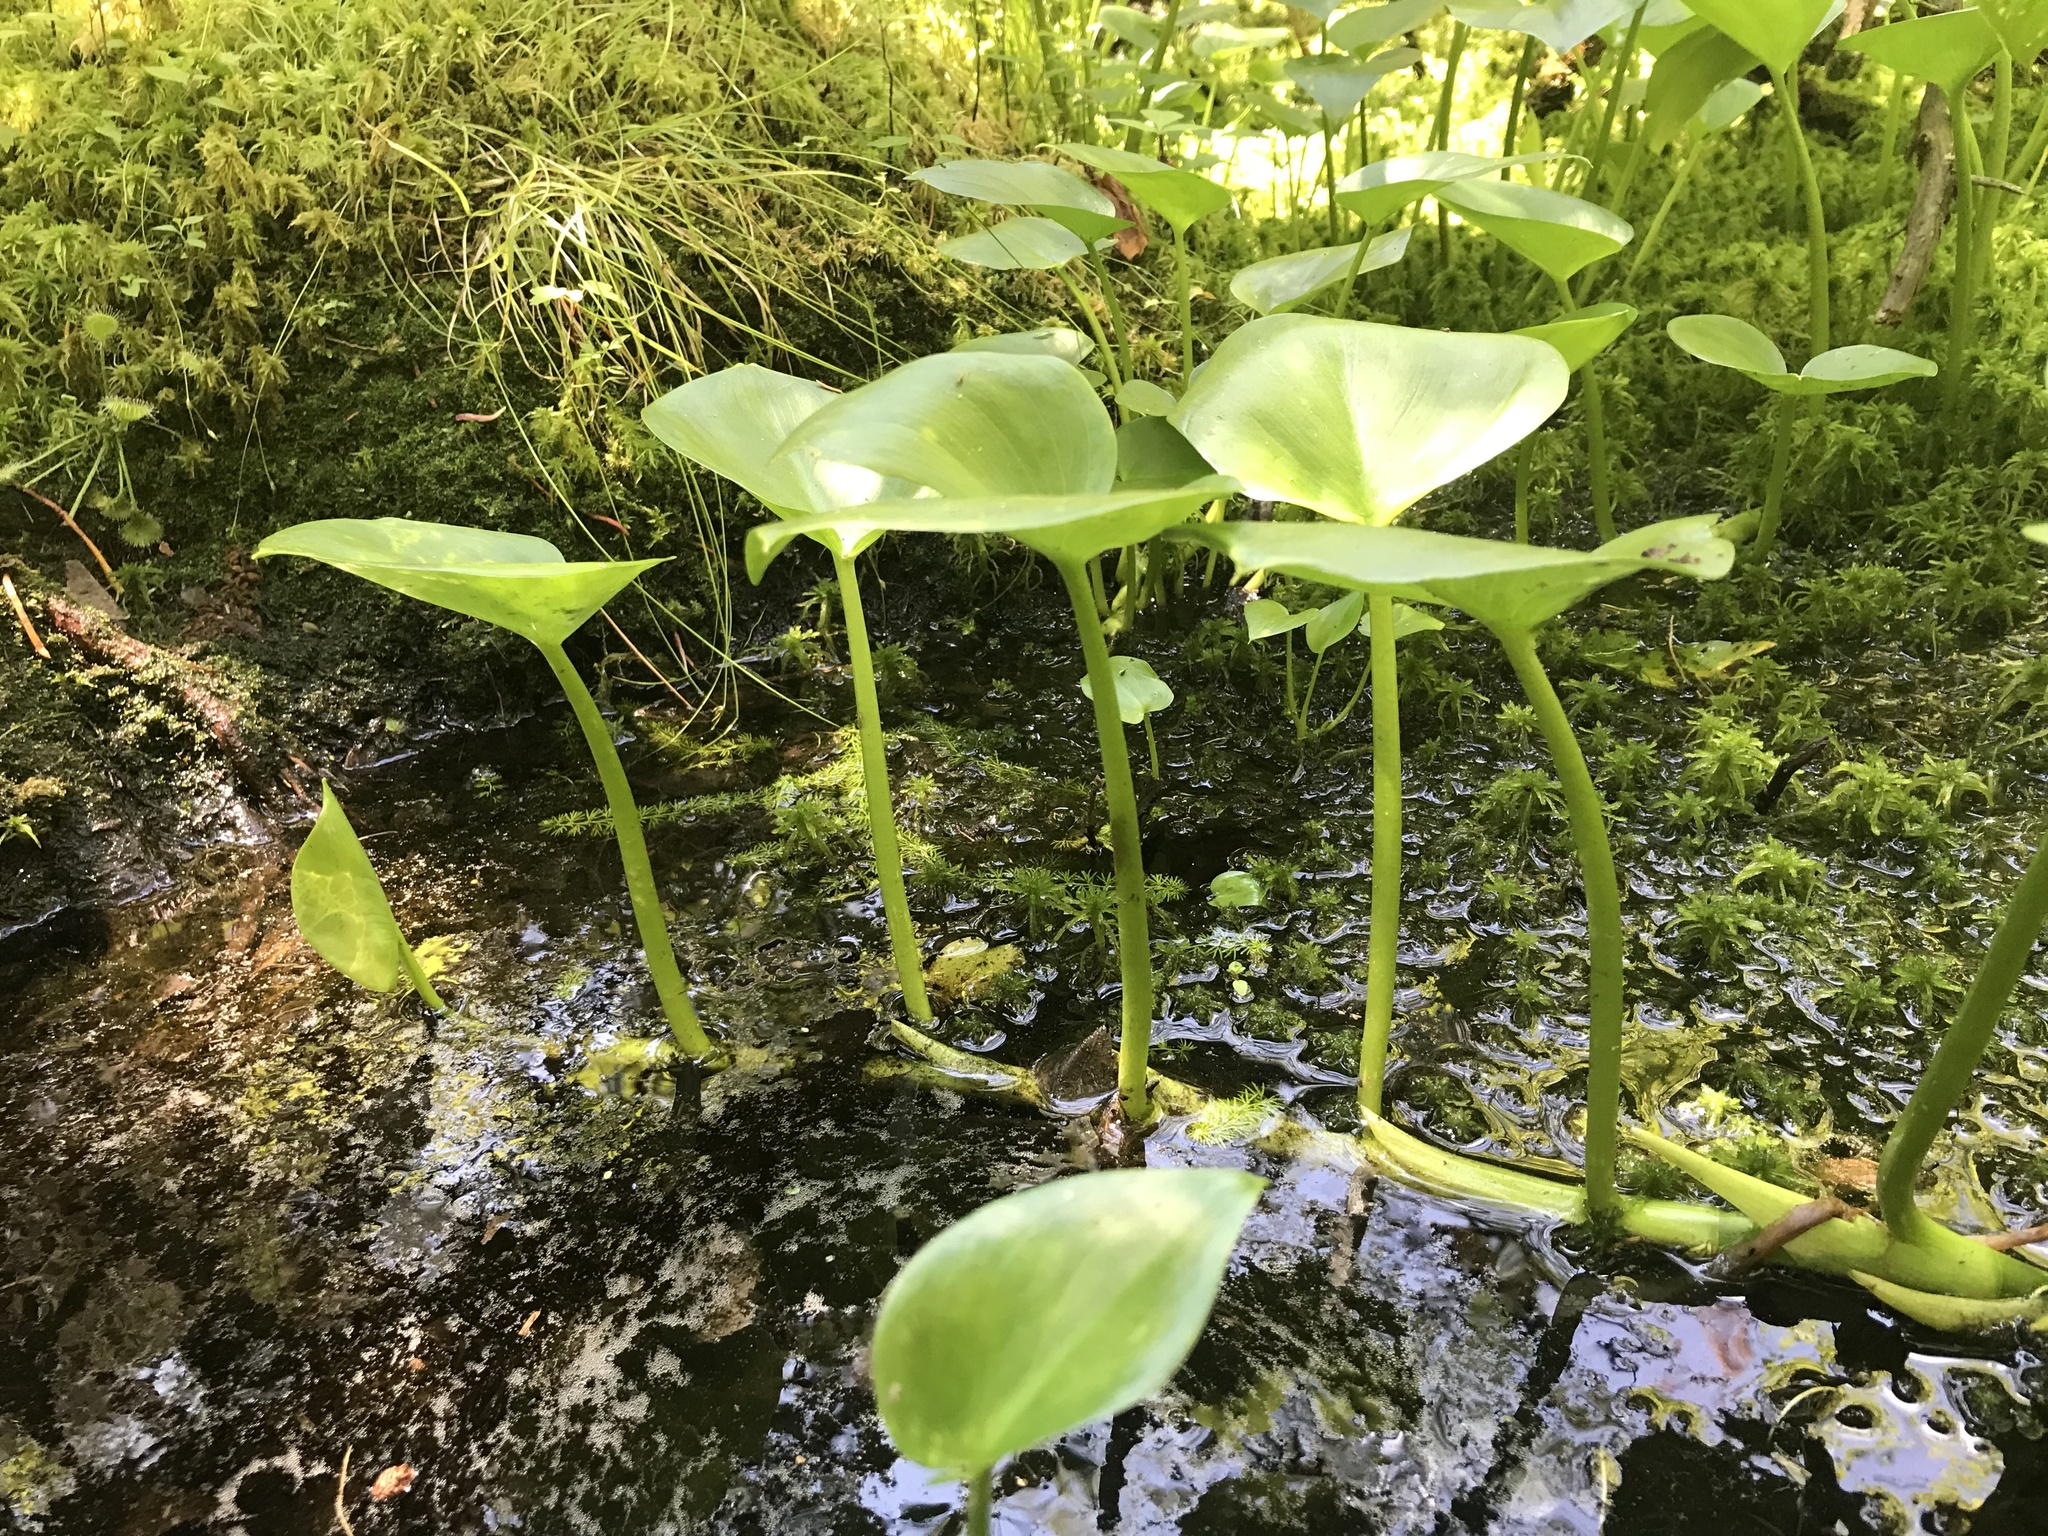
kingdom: Plantae
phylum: Tracheophyta
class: Liliopsida
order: Alismatales
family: Araceae
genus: Calla
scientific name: Calla palustris
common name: Bog arum
